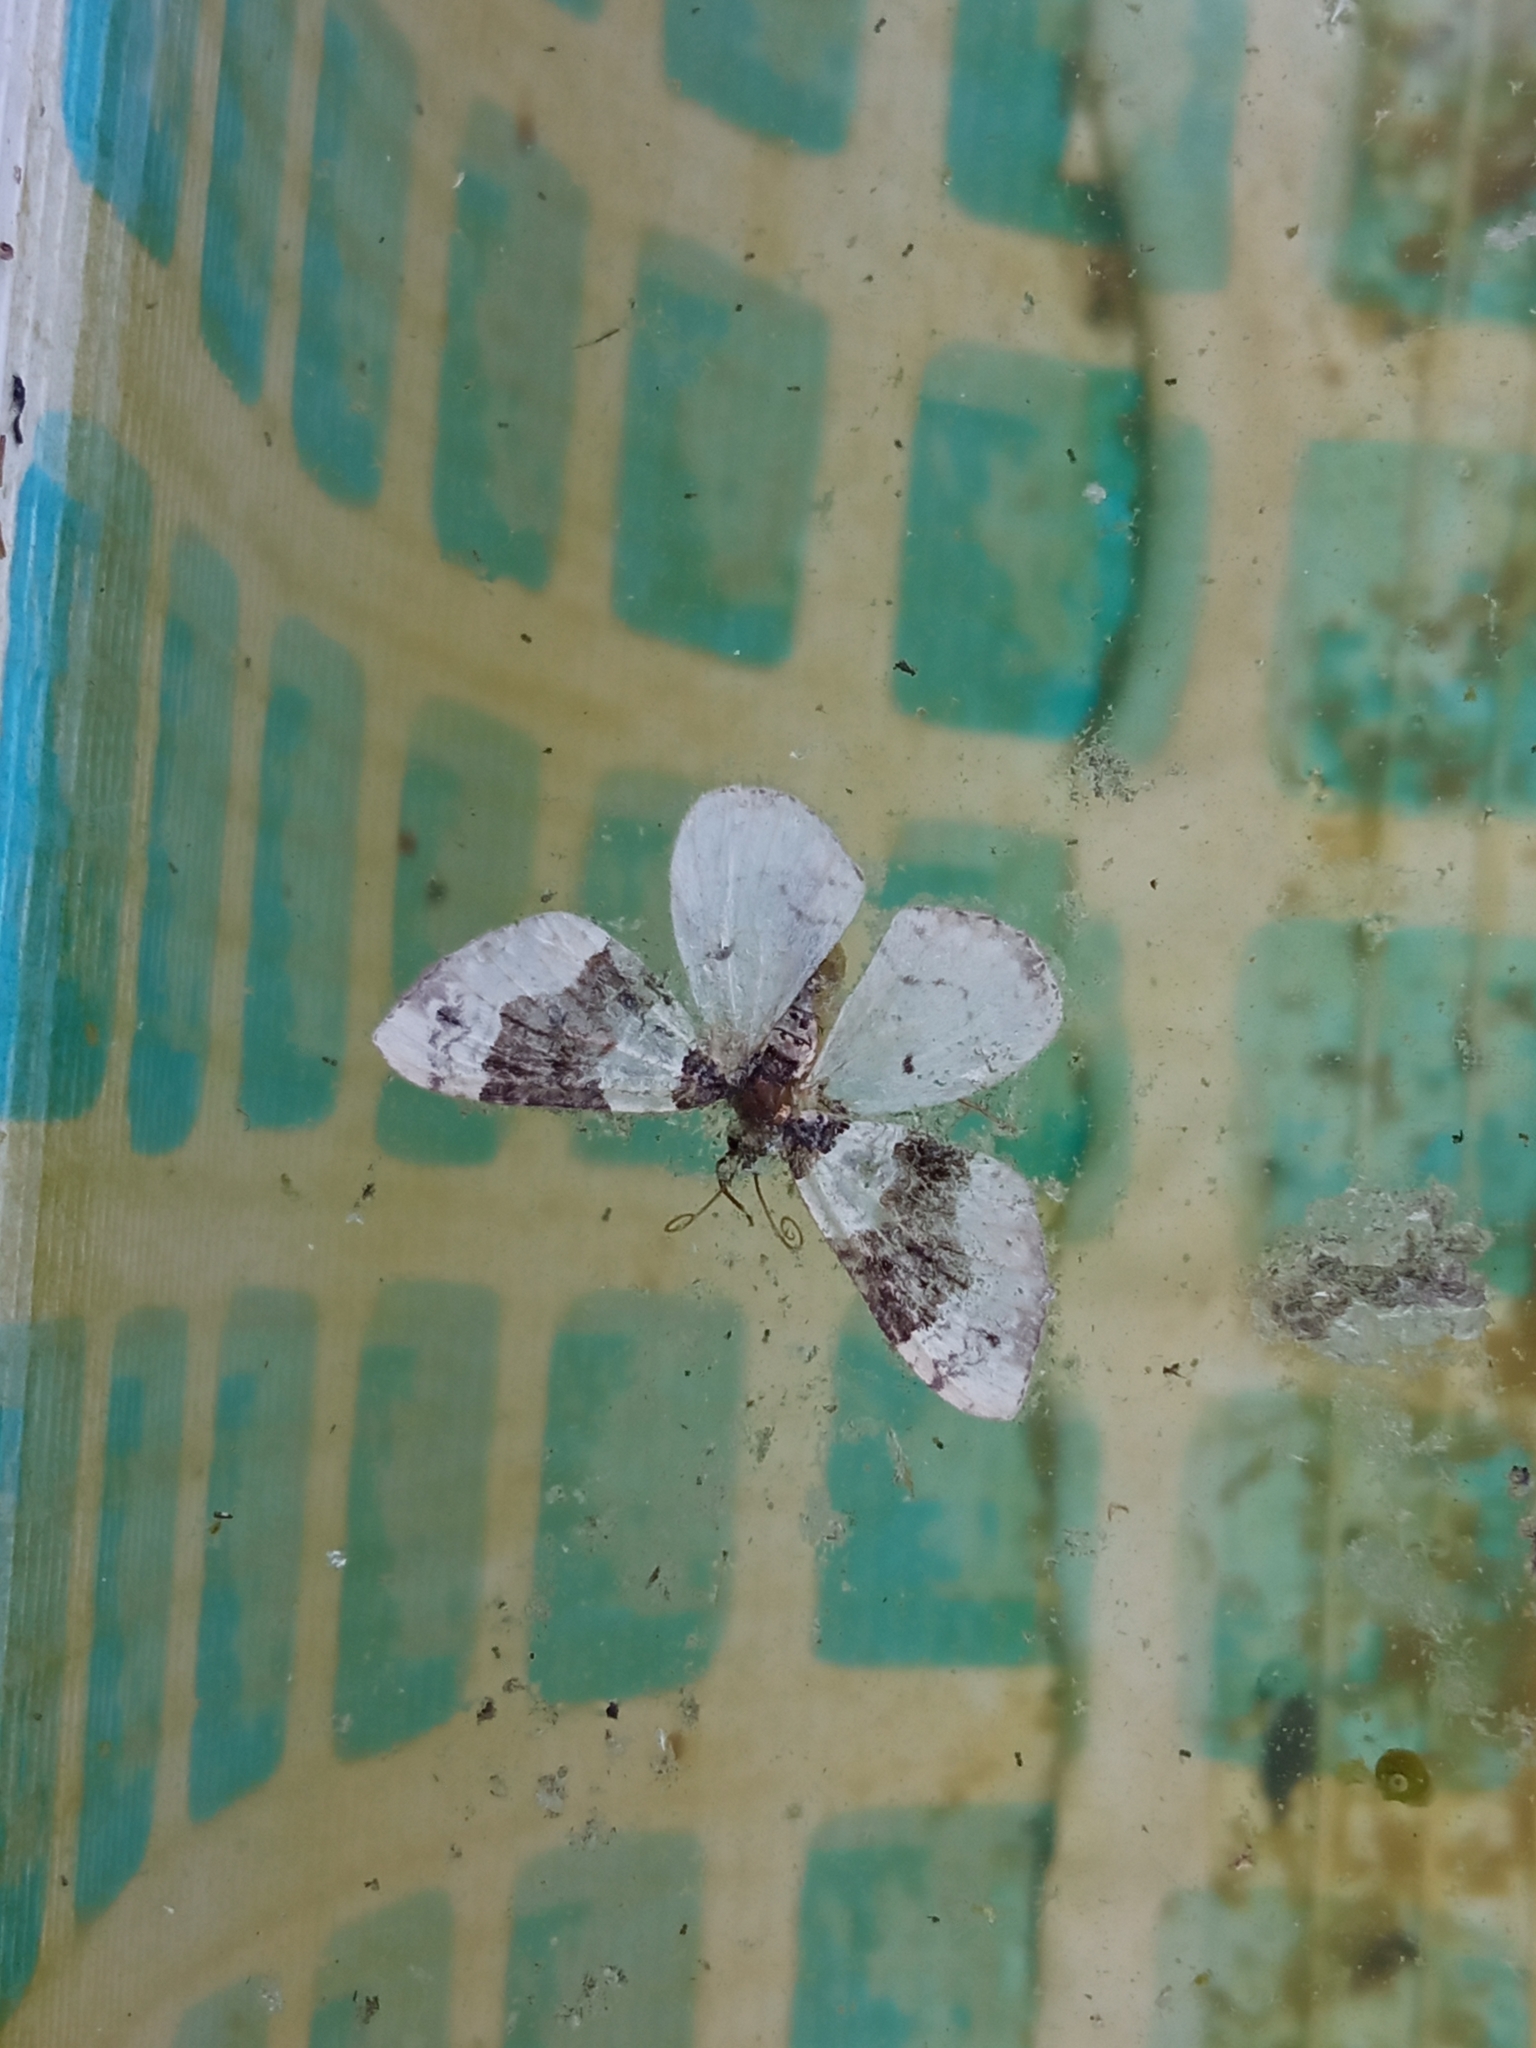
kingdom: Animalia
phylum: Arthropoda
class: Insecta
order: Lepidoptera
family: Geometridae
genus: Cosmorhoe
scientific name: Cosmorhoe ocellata
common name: Purple bar
